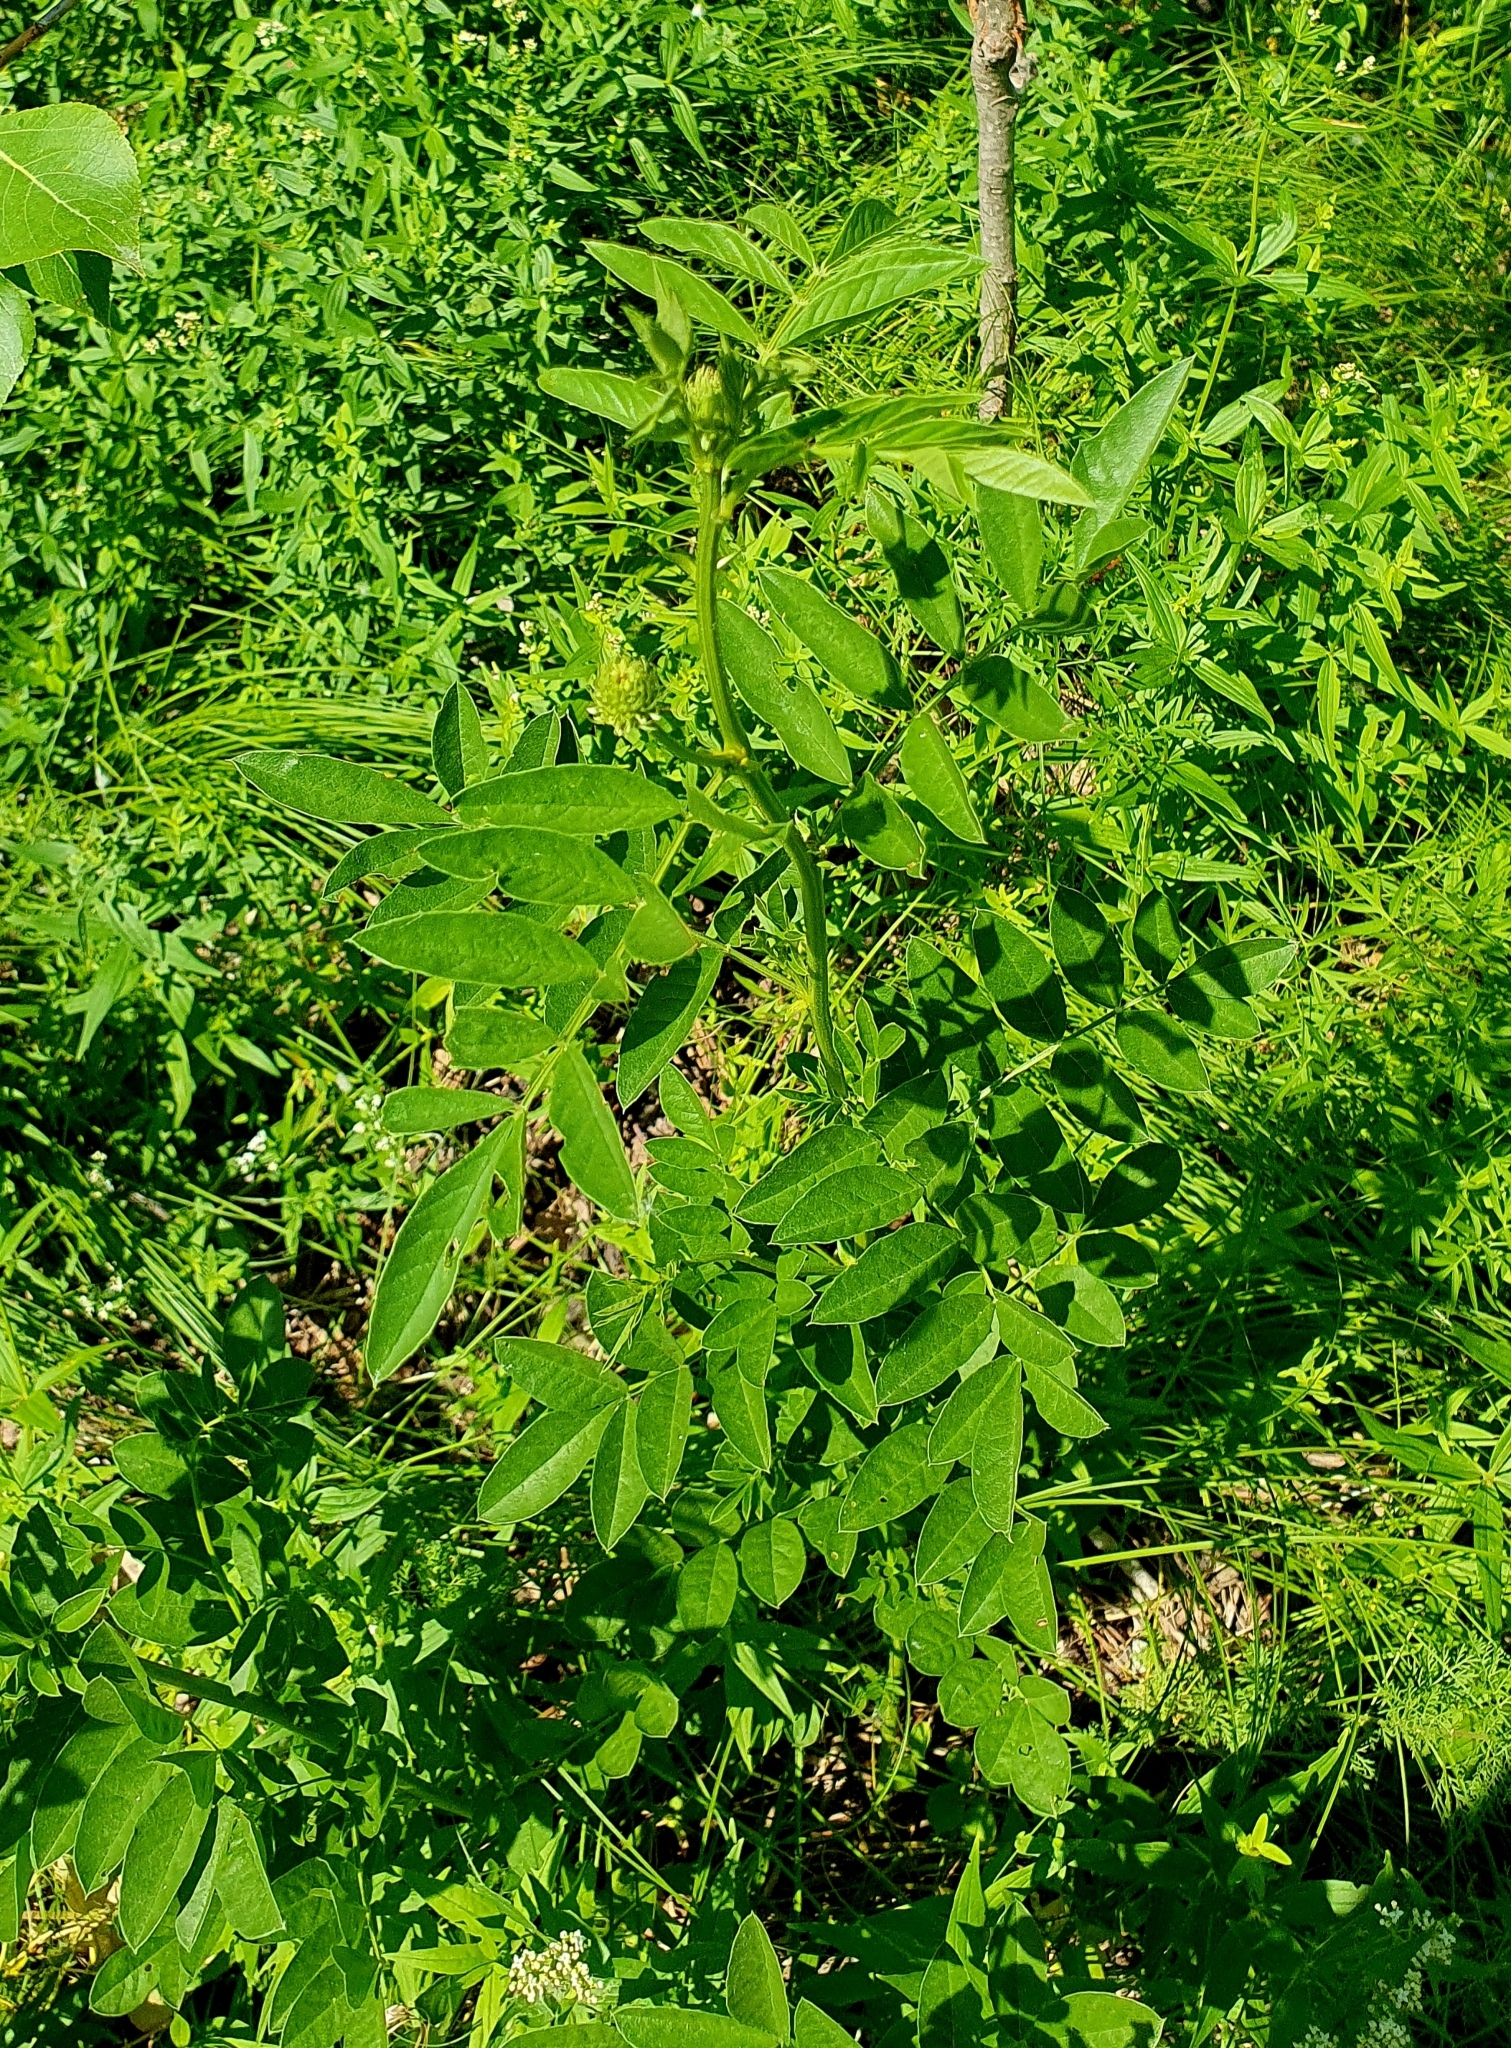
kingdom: Plantae
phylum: Tracheophyta
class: Magnoliopsida
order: Fabales
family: Fabaceae
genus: Glycyrrhiza
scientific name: Glycyrrhiza echinata
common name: German liquorice
